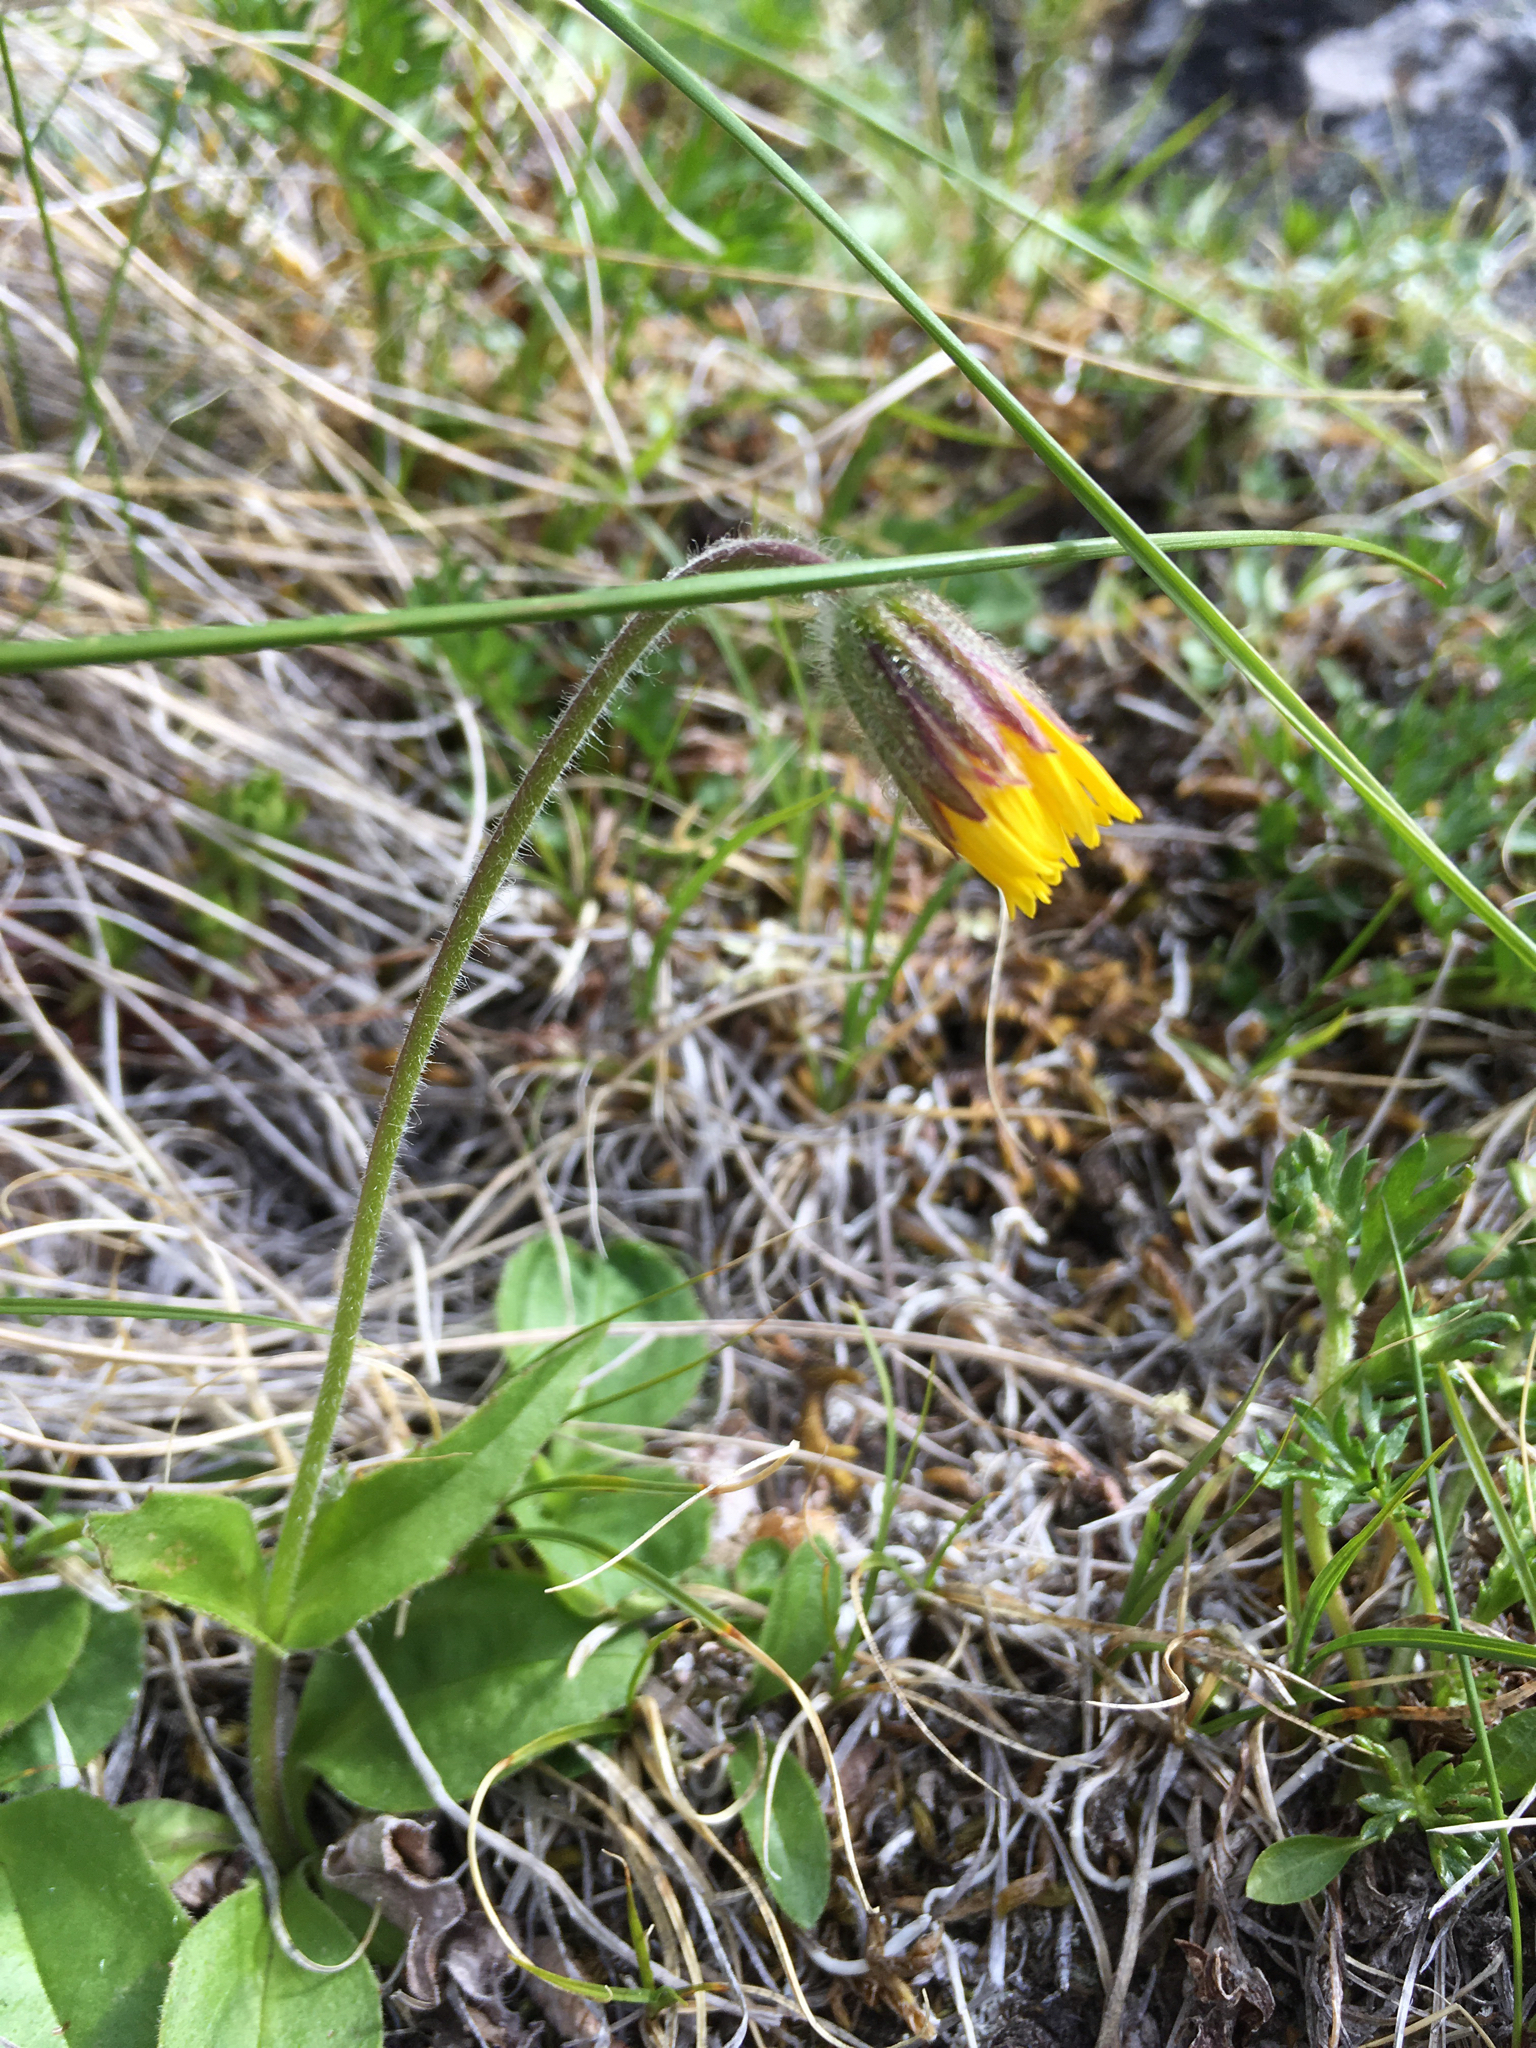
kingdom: Plantae
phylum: Tracheophyta
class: Magnoliopsida
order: Asterales
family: Asteraceae
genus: Arnica
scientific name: Arnica griscomii
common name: Snow arnica
